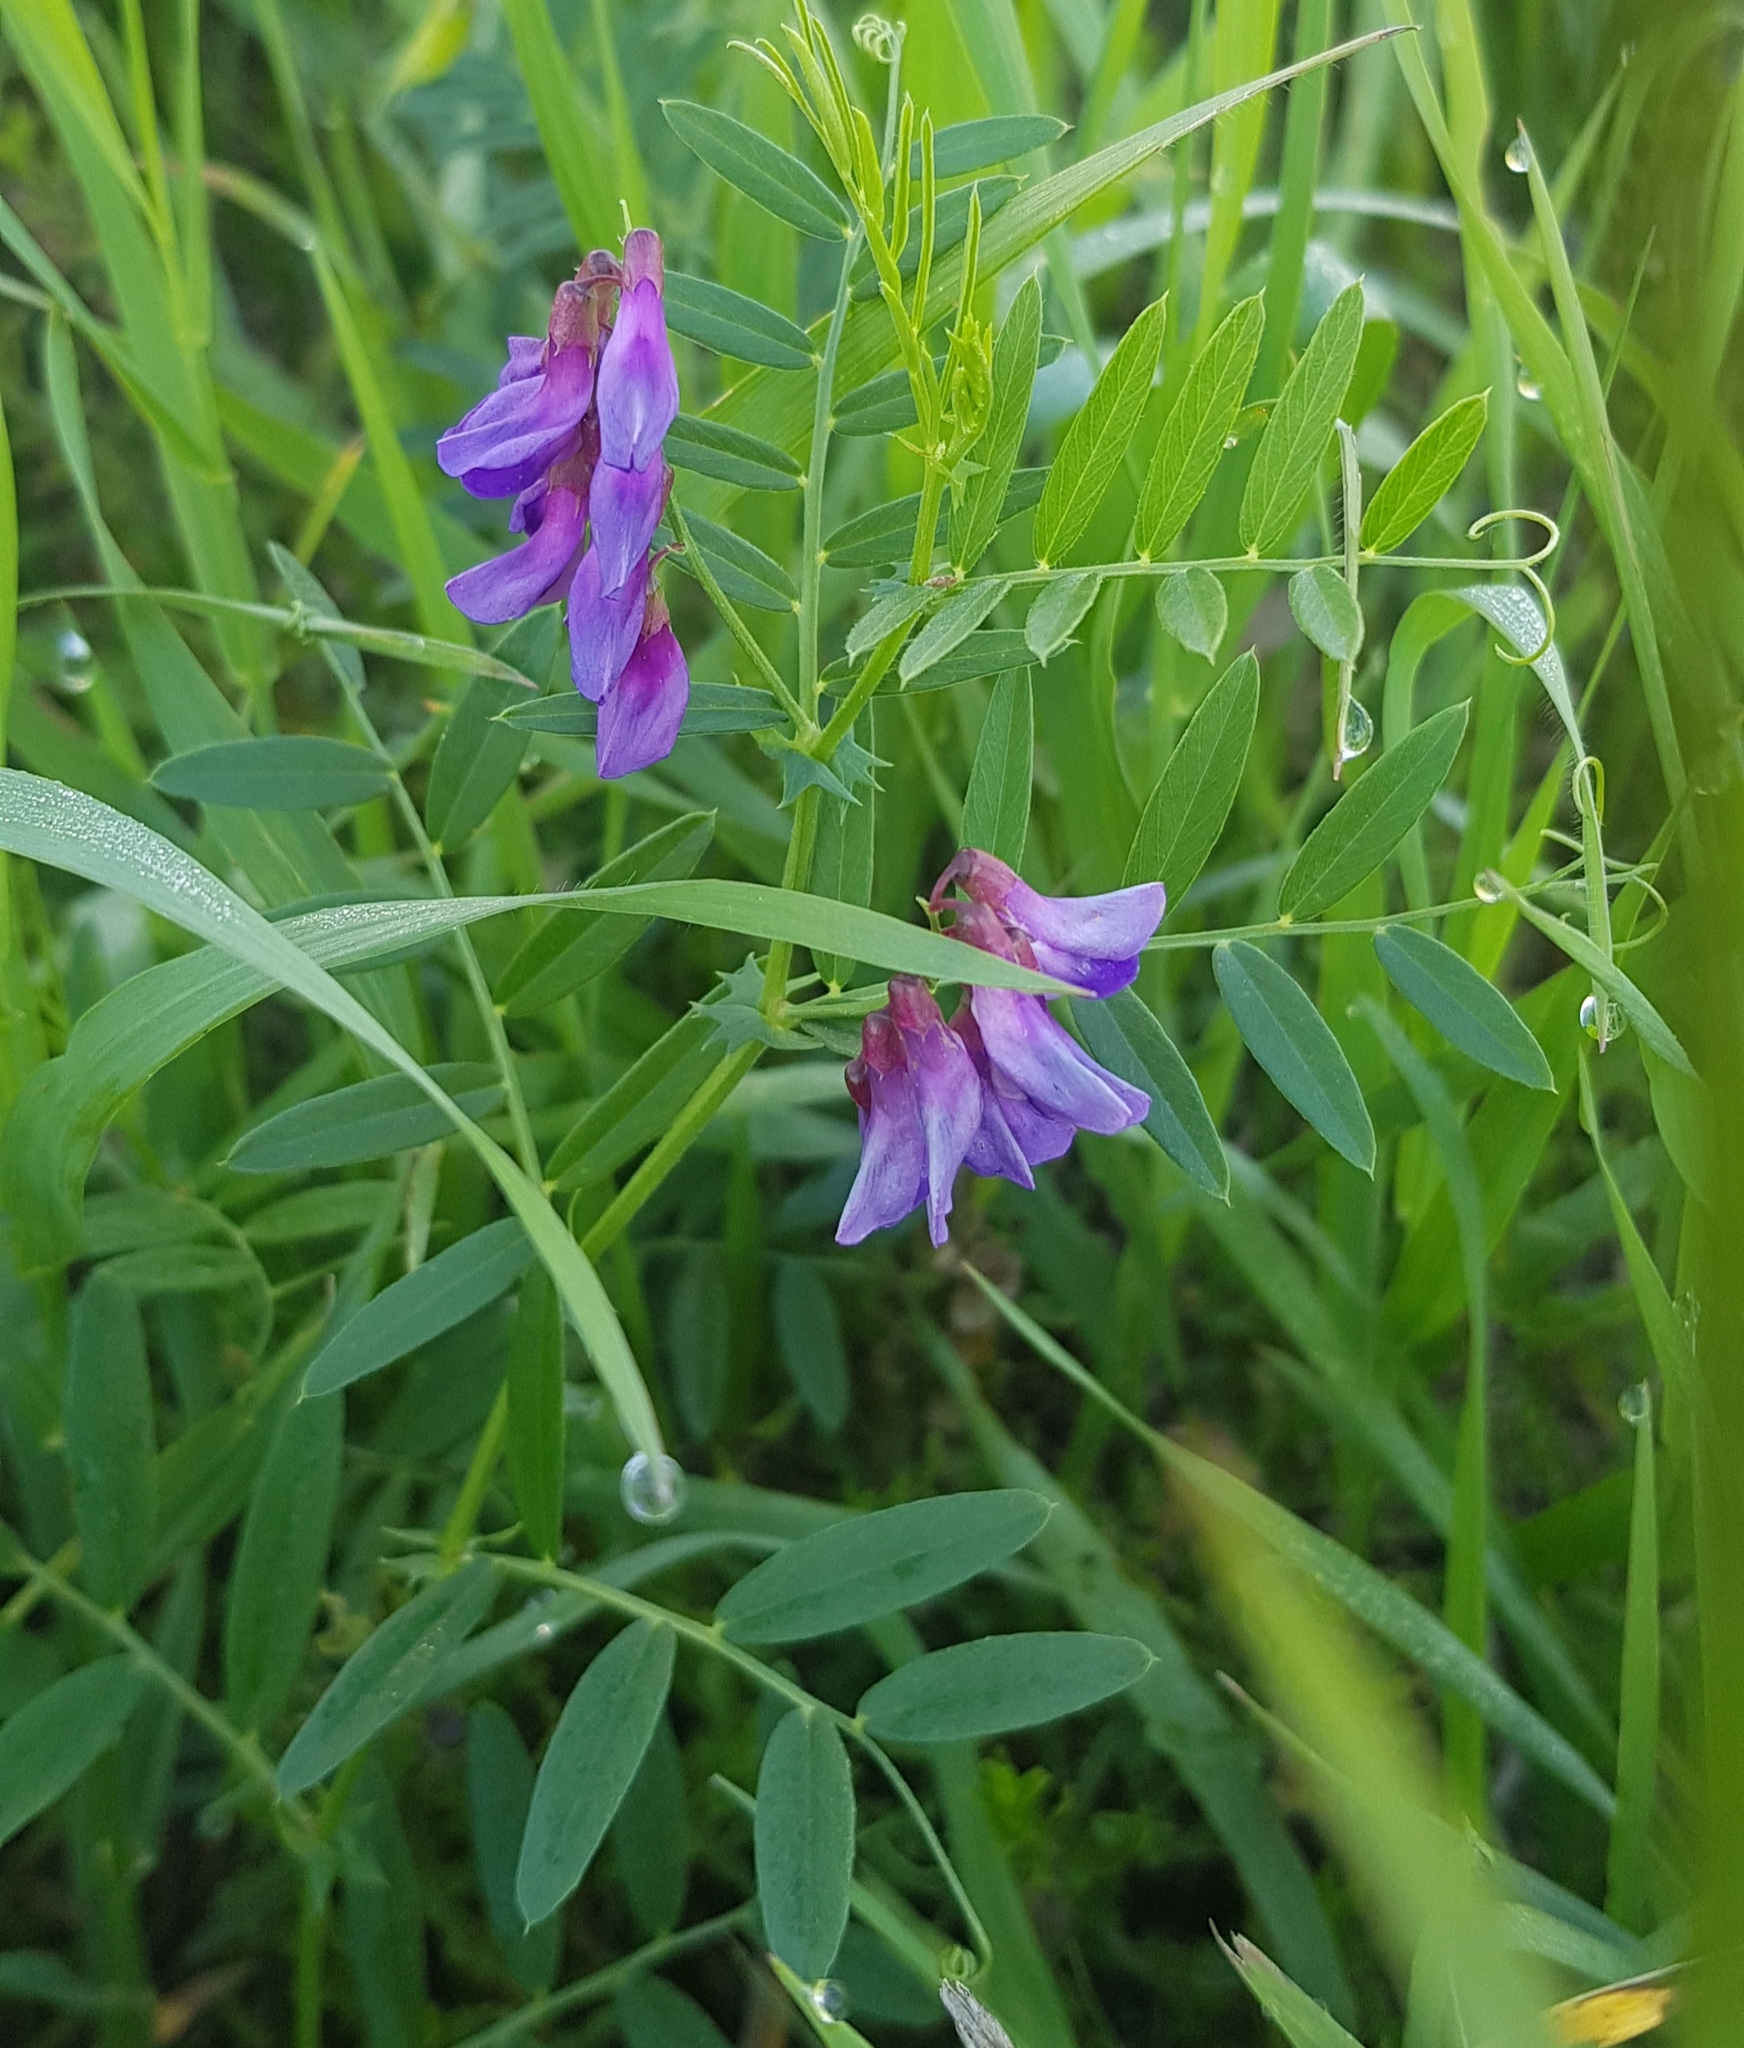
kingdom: Plantae
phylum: Tracheophyta
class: Magnoliopsida
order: Fabales
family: Fabaceae
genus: Vicia
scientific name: Vicia cracca
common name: Bird vetch
